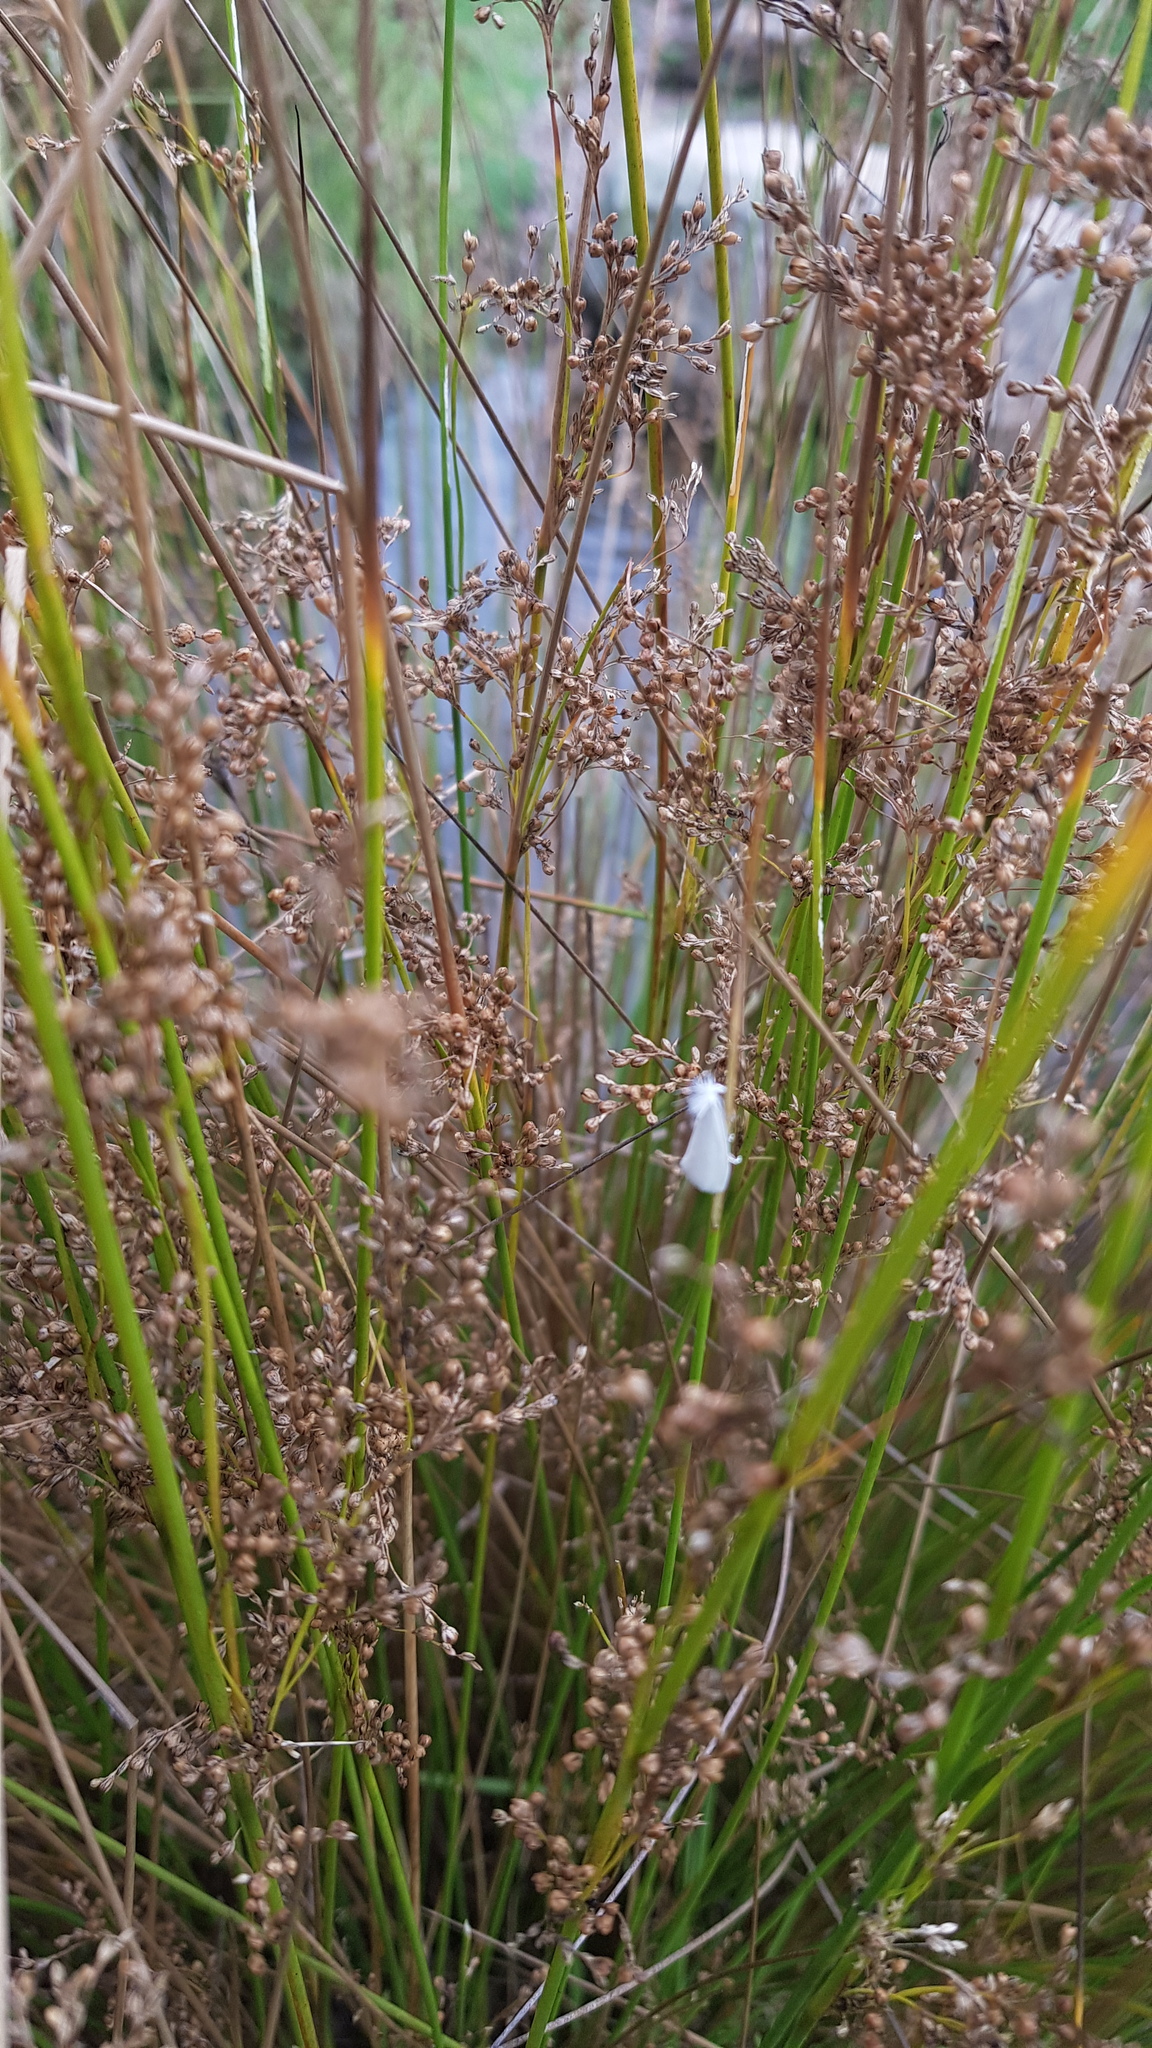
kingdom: Animalia
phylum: Arthropoda
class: Insecta
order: Lepidoptera
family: Crambidae
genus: Tipanaea
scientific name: Tipanaea patulella
